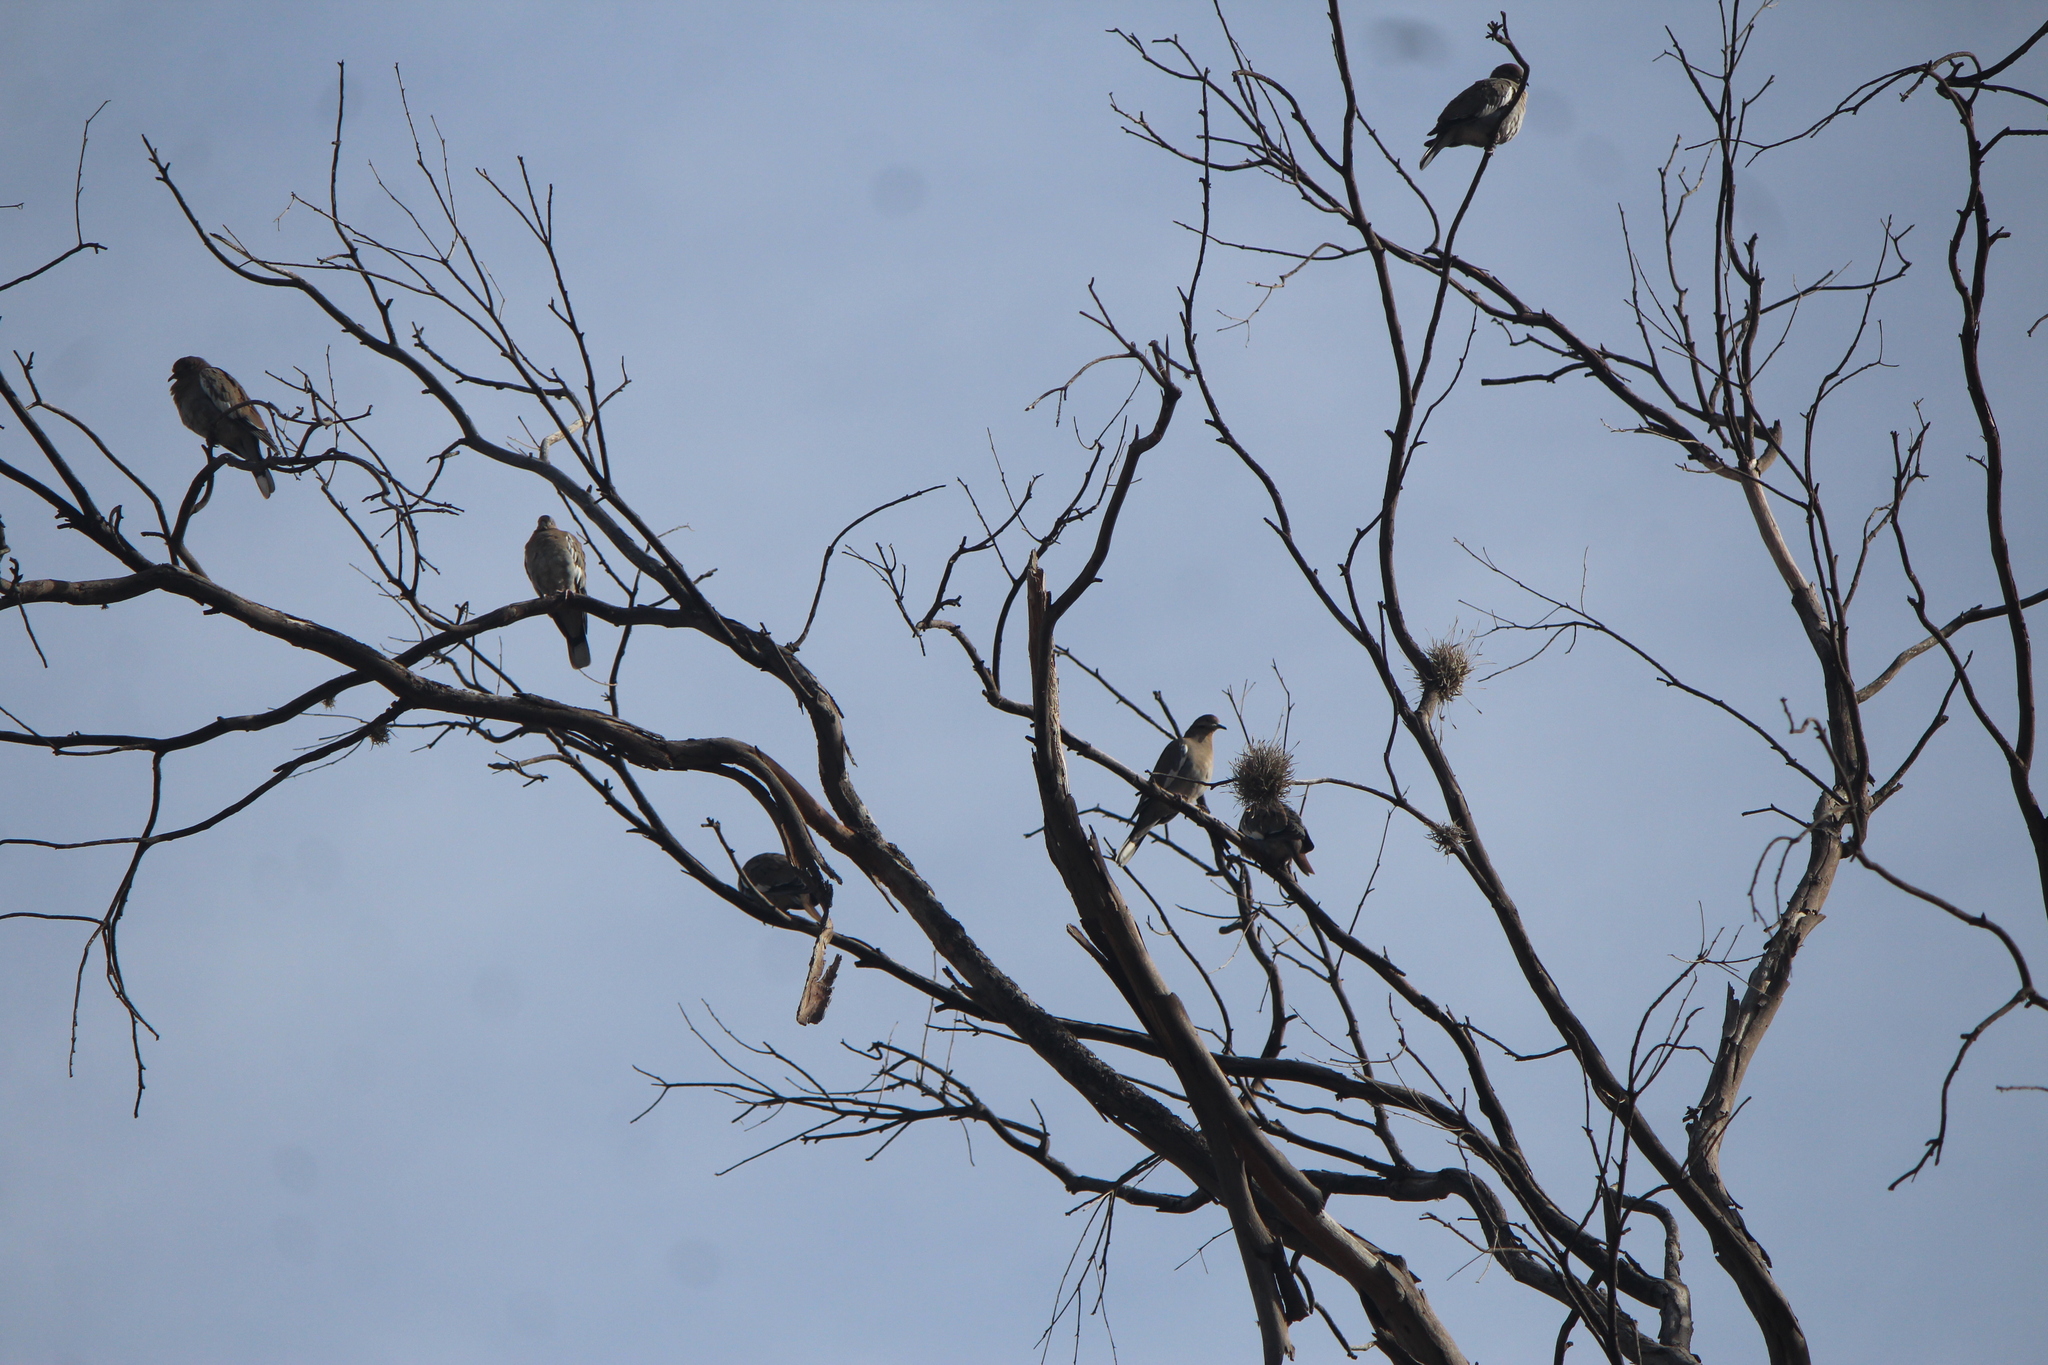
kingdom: Animalia
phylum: Chordata
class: Aves
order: Columbiformes
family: Columbidae
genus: Zenaida
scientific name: Zenaida asiatica
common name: White-winged dove
